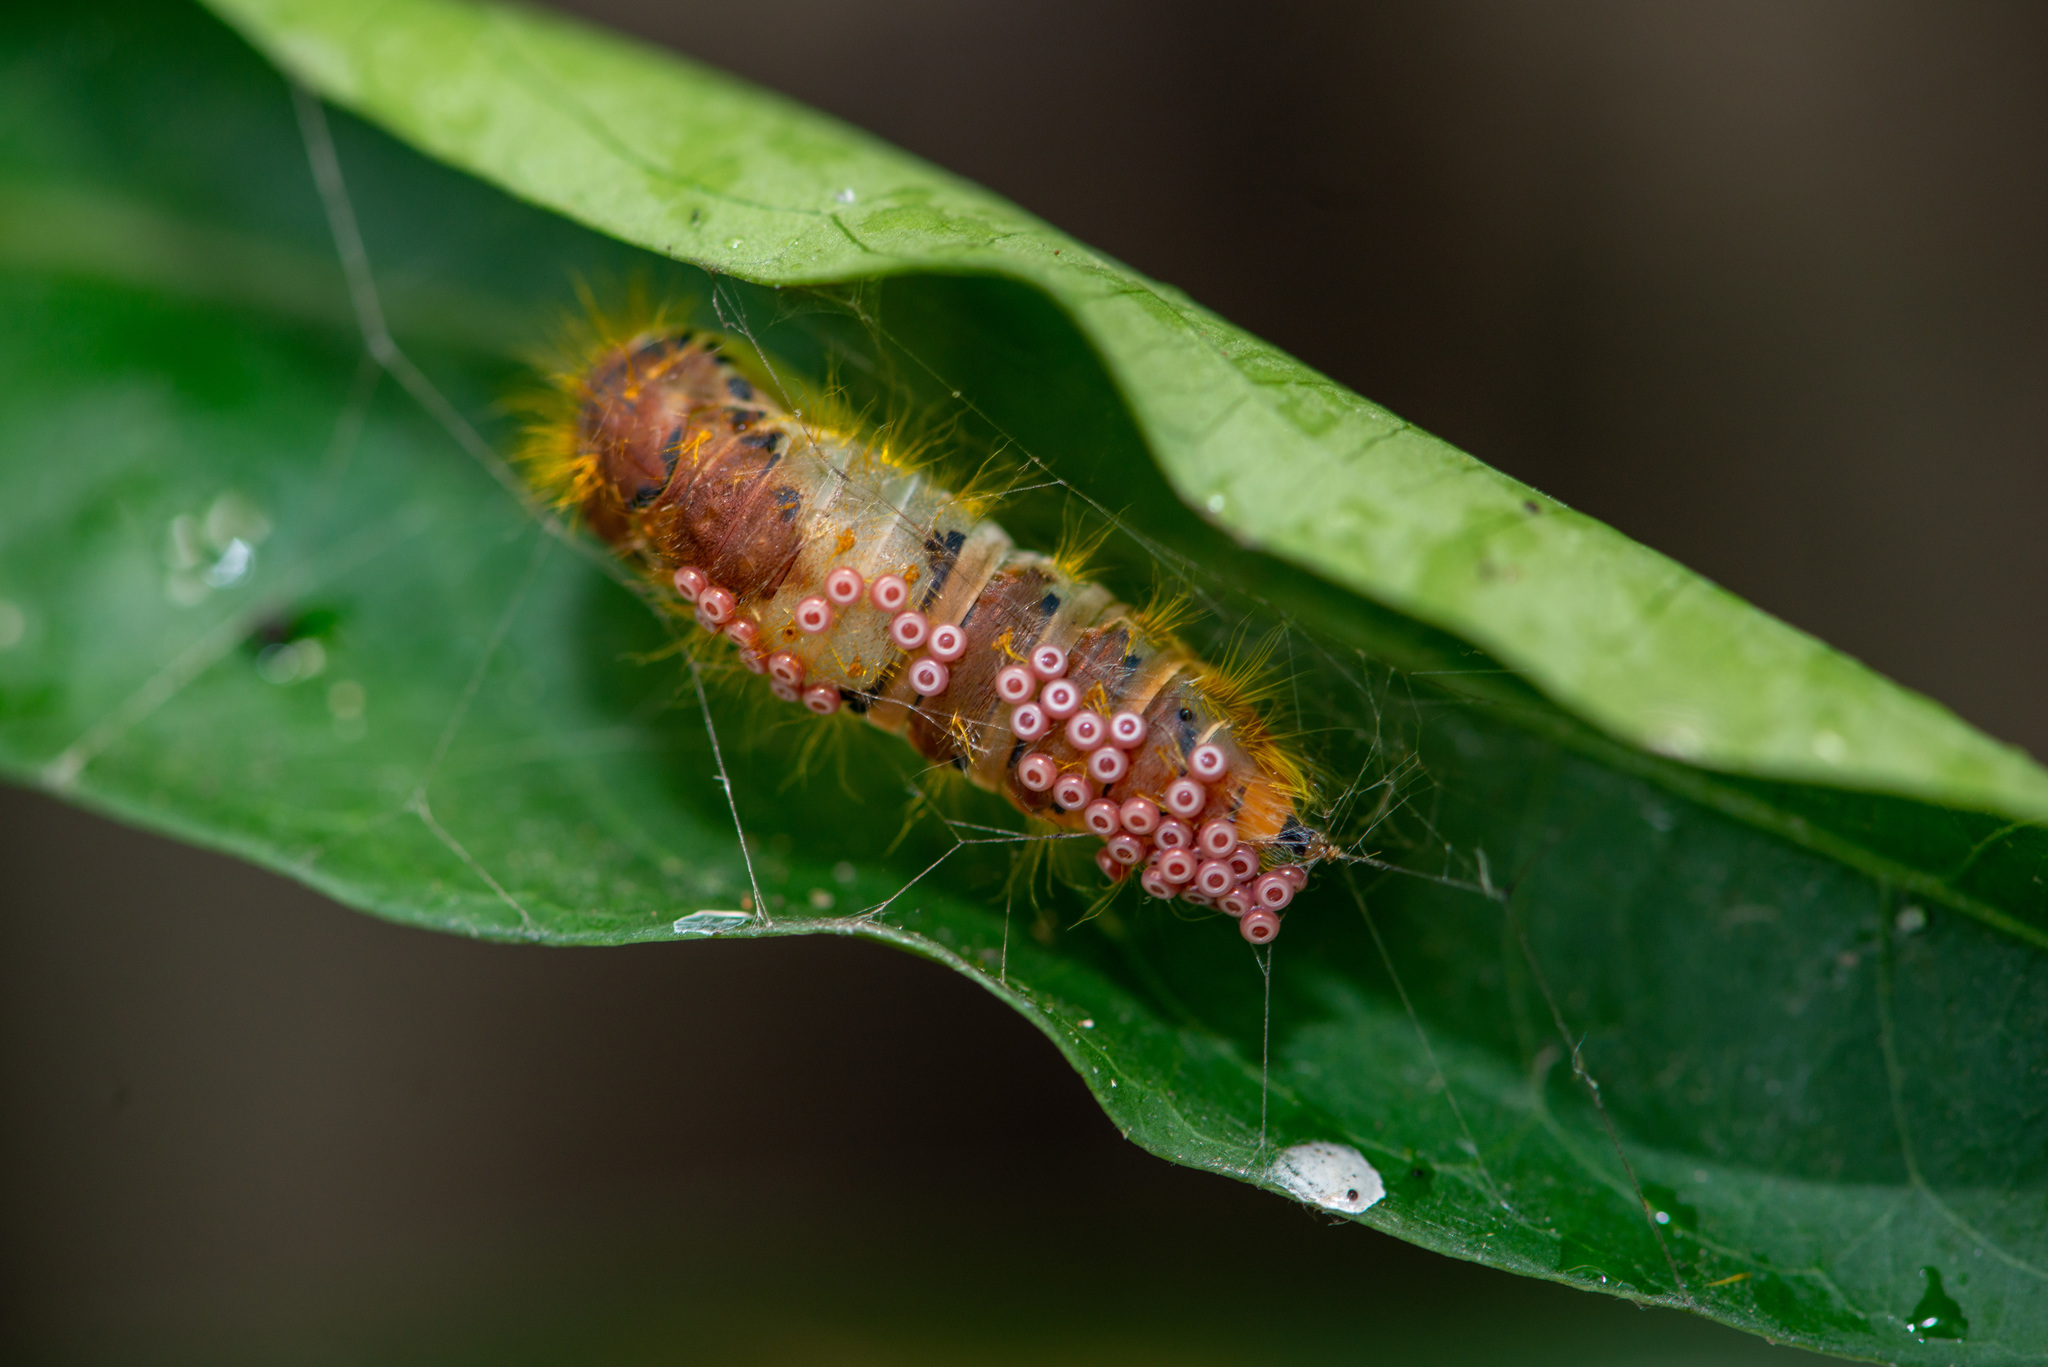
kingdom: Animalia
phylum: Arthropoda
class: Insecta
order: Lepidoptera
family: Erebidae
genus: Perina
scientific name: Perina nuda
